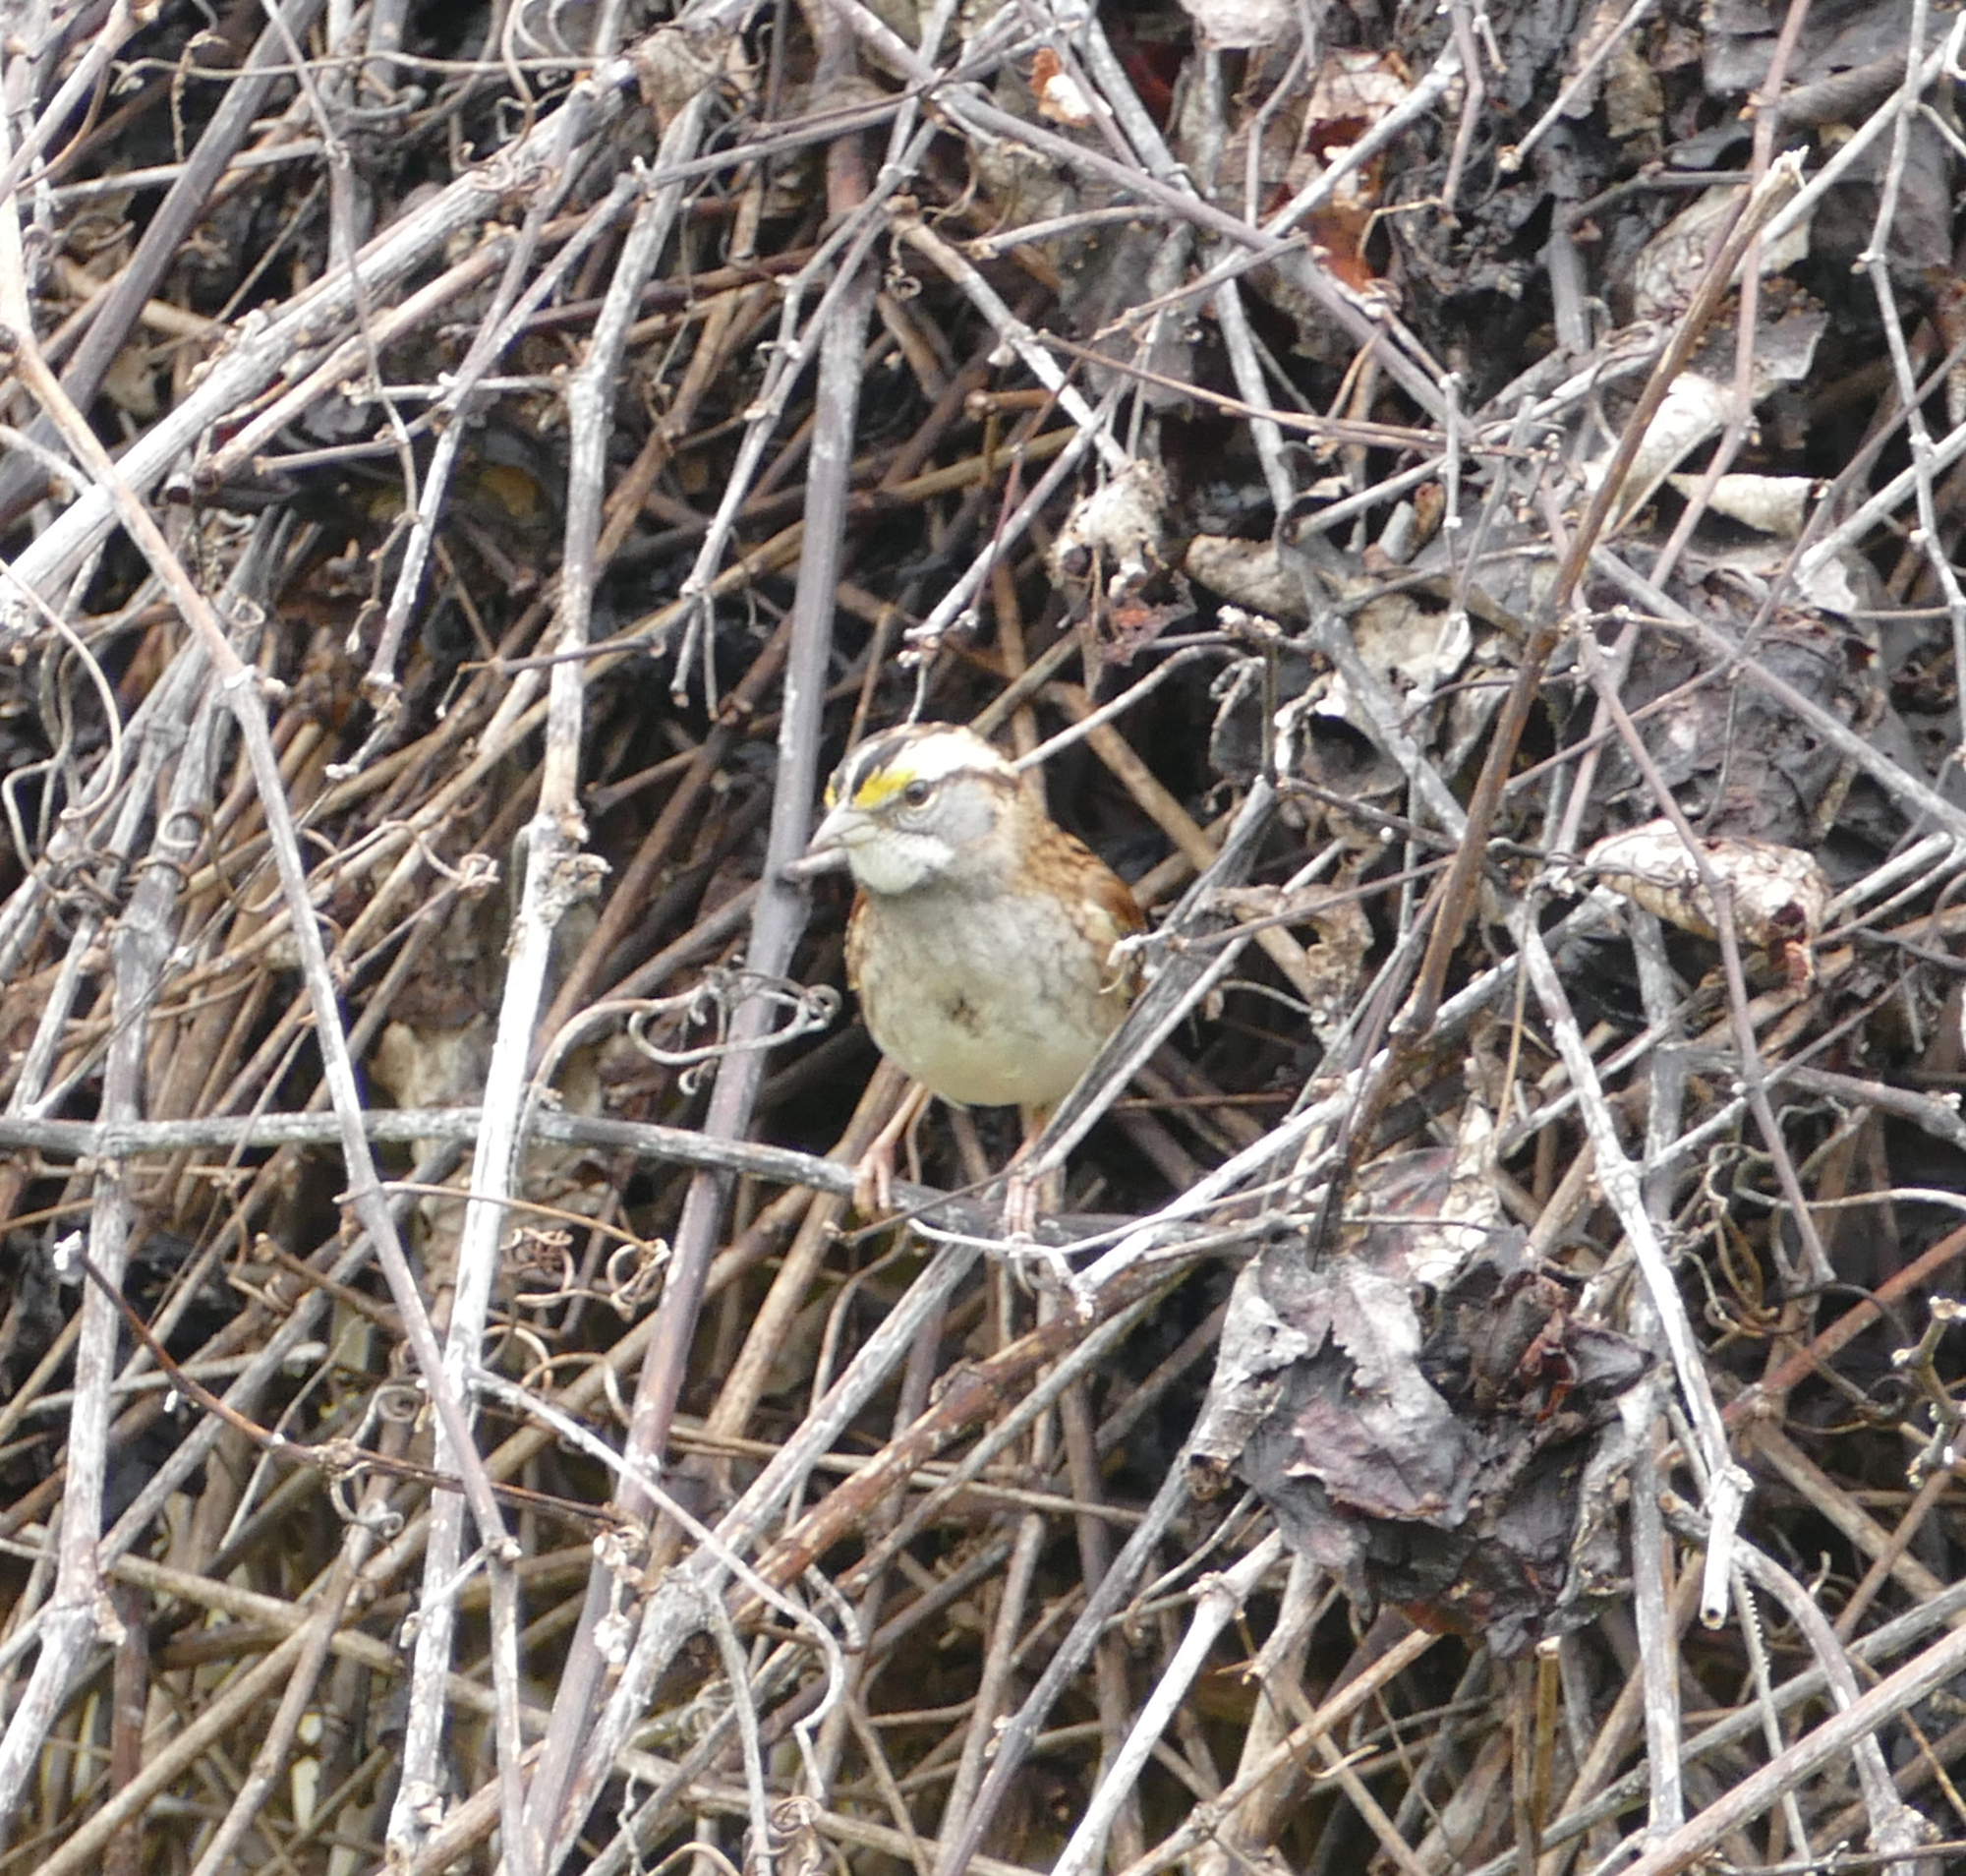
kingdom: Animalia
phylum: Chordata
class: Aves
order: Passeriformes
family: Passerellidae
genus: Zonotrichia
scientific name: Zonotrichia albicollis
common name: White-throated sparrow
